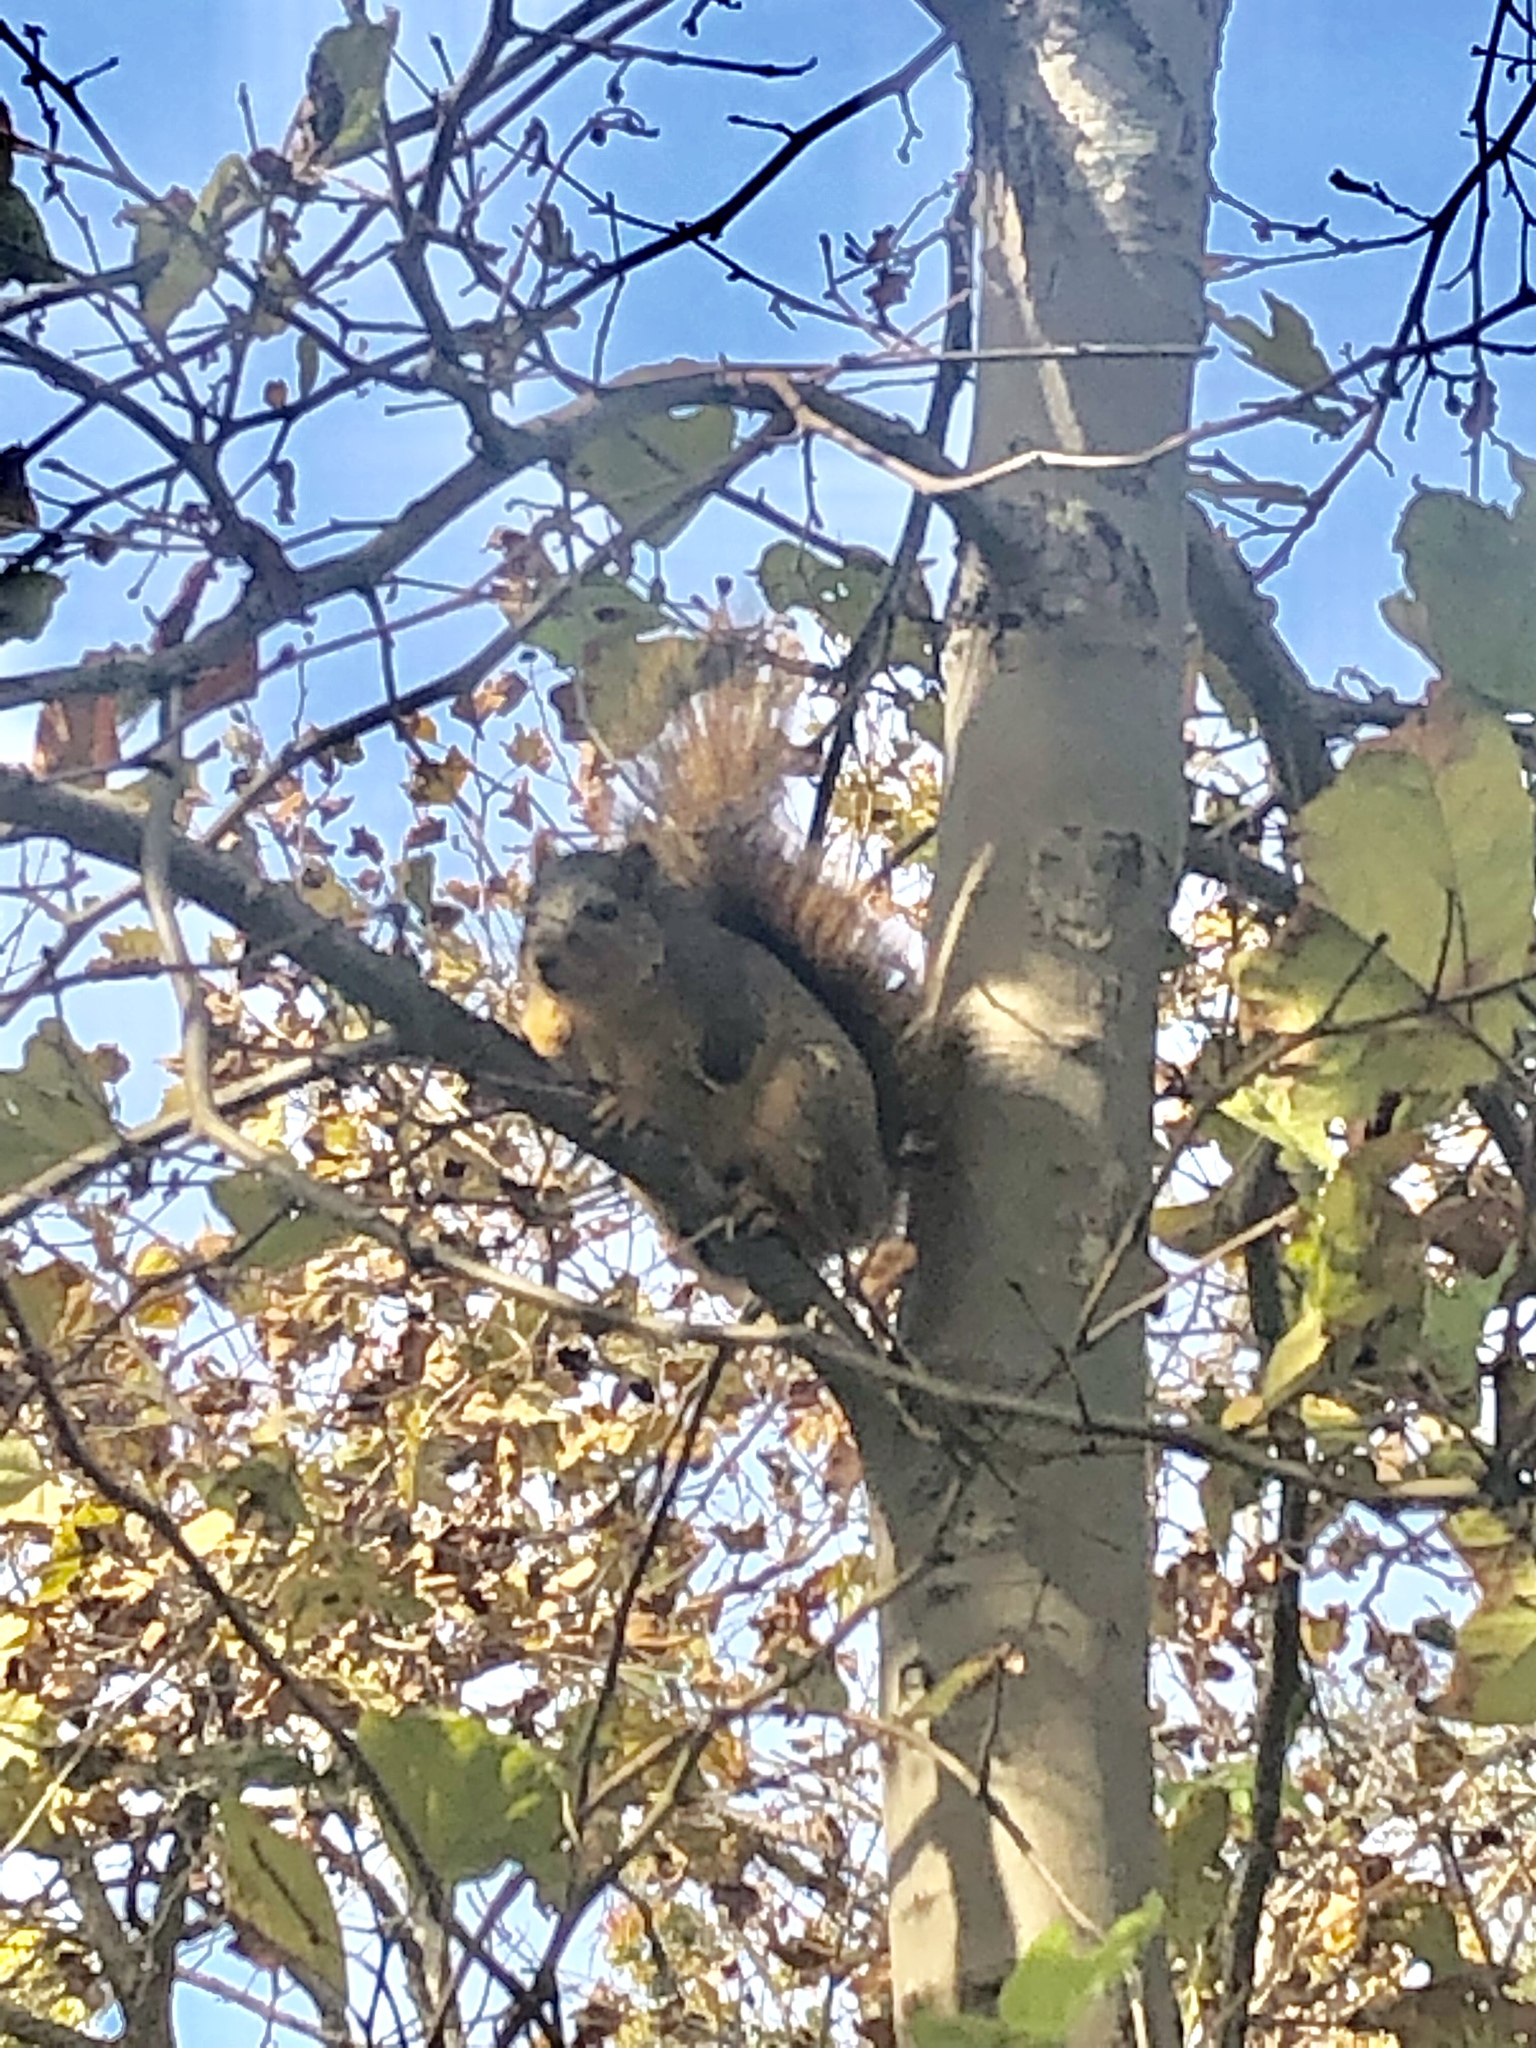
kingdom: Animalia
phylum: Chordata
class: Mammalia
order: Rodentia
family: Sciuridae
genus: Sciurus
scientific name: Sciurus niger
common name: Fox squirrel
